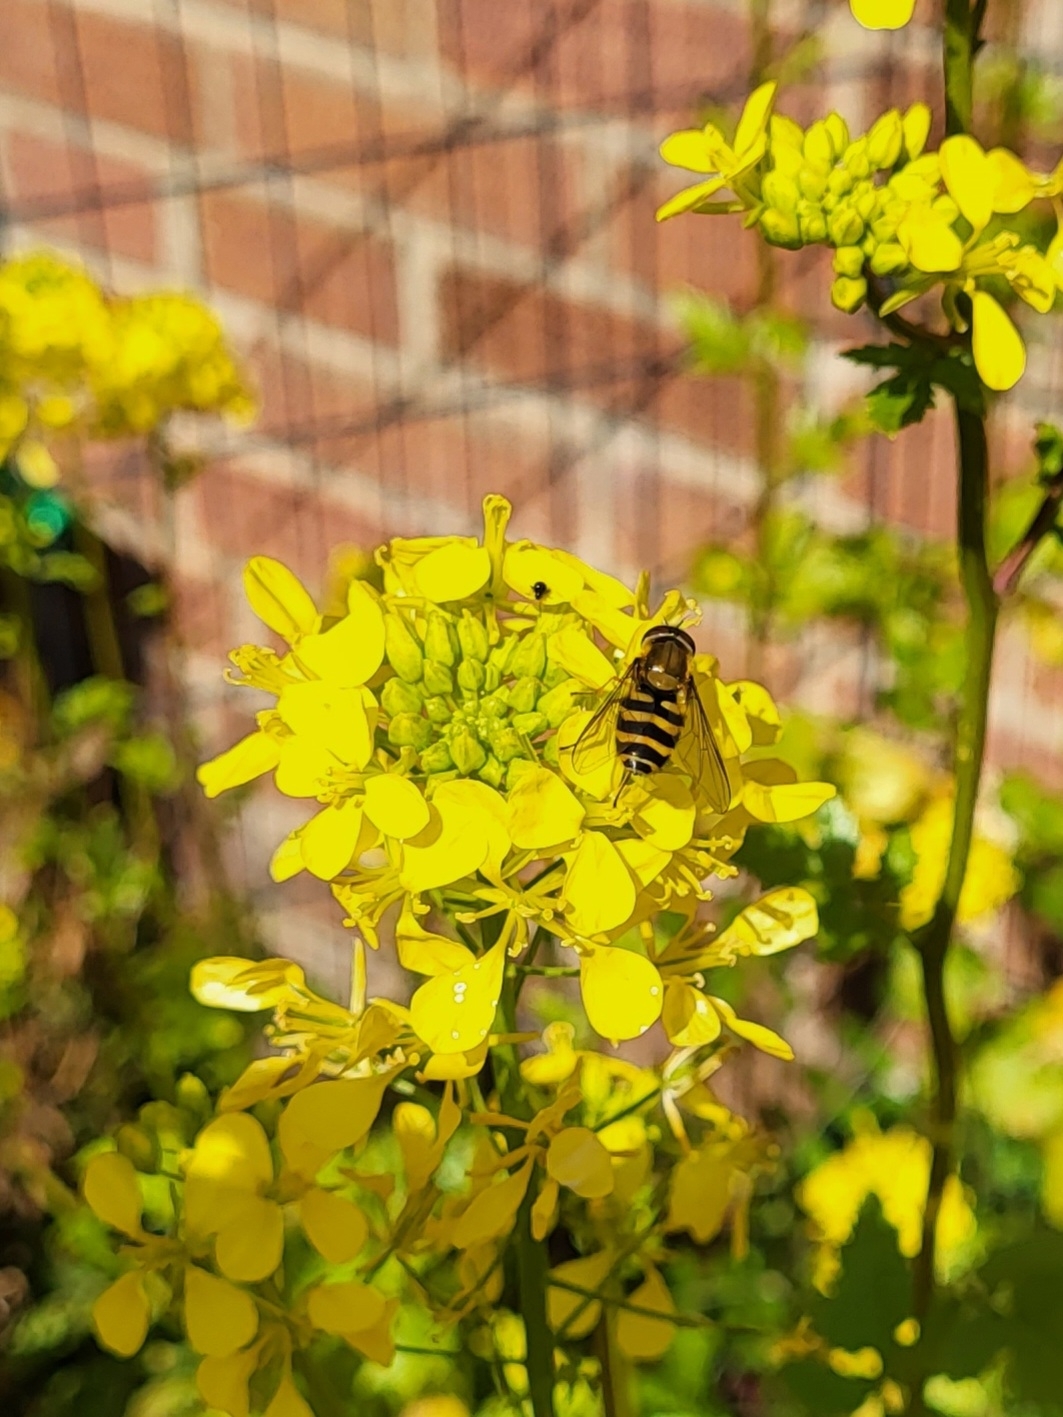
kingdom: Animalia
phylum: Arthropoda
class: Insecta
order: Diptera
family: Syrphidae
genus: Syrphus
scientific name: Syrphus
